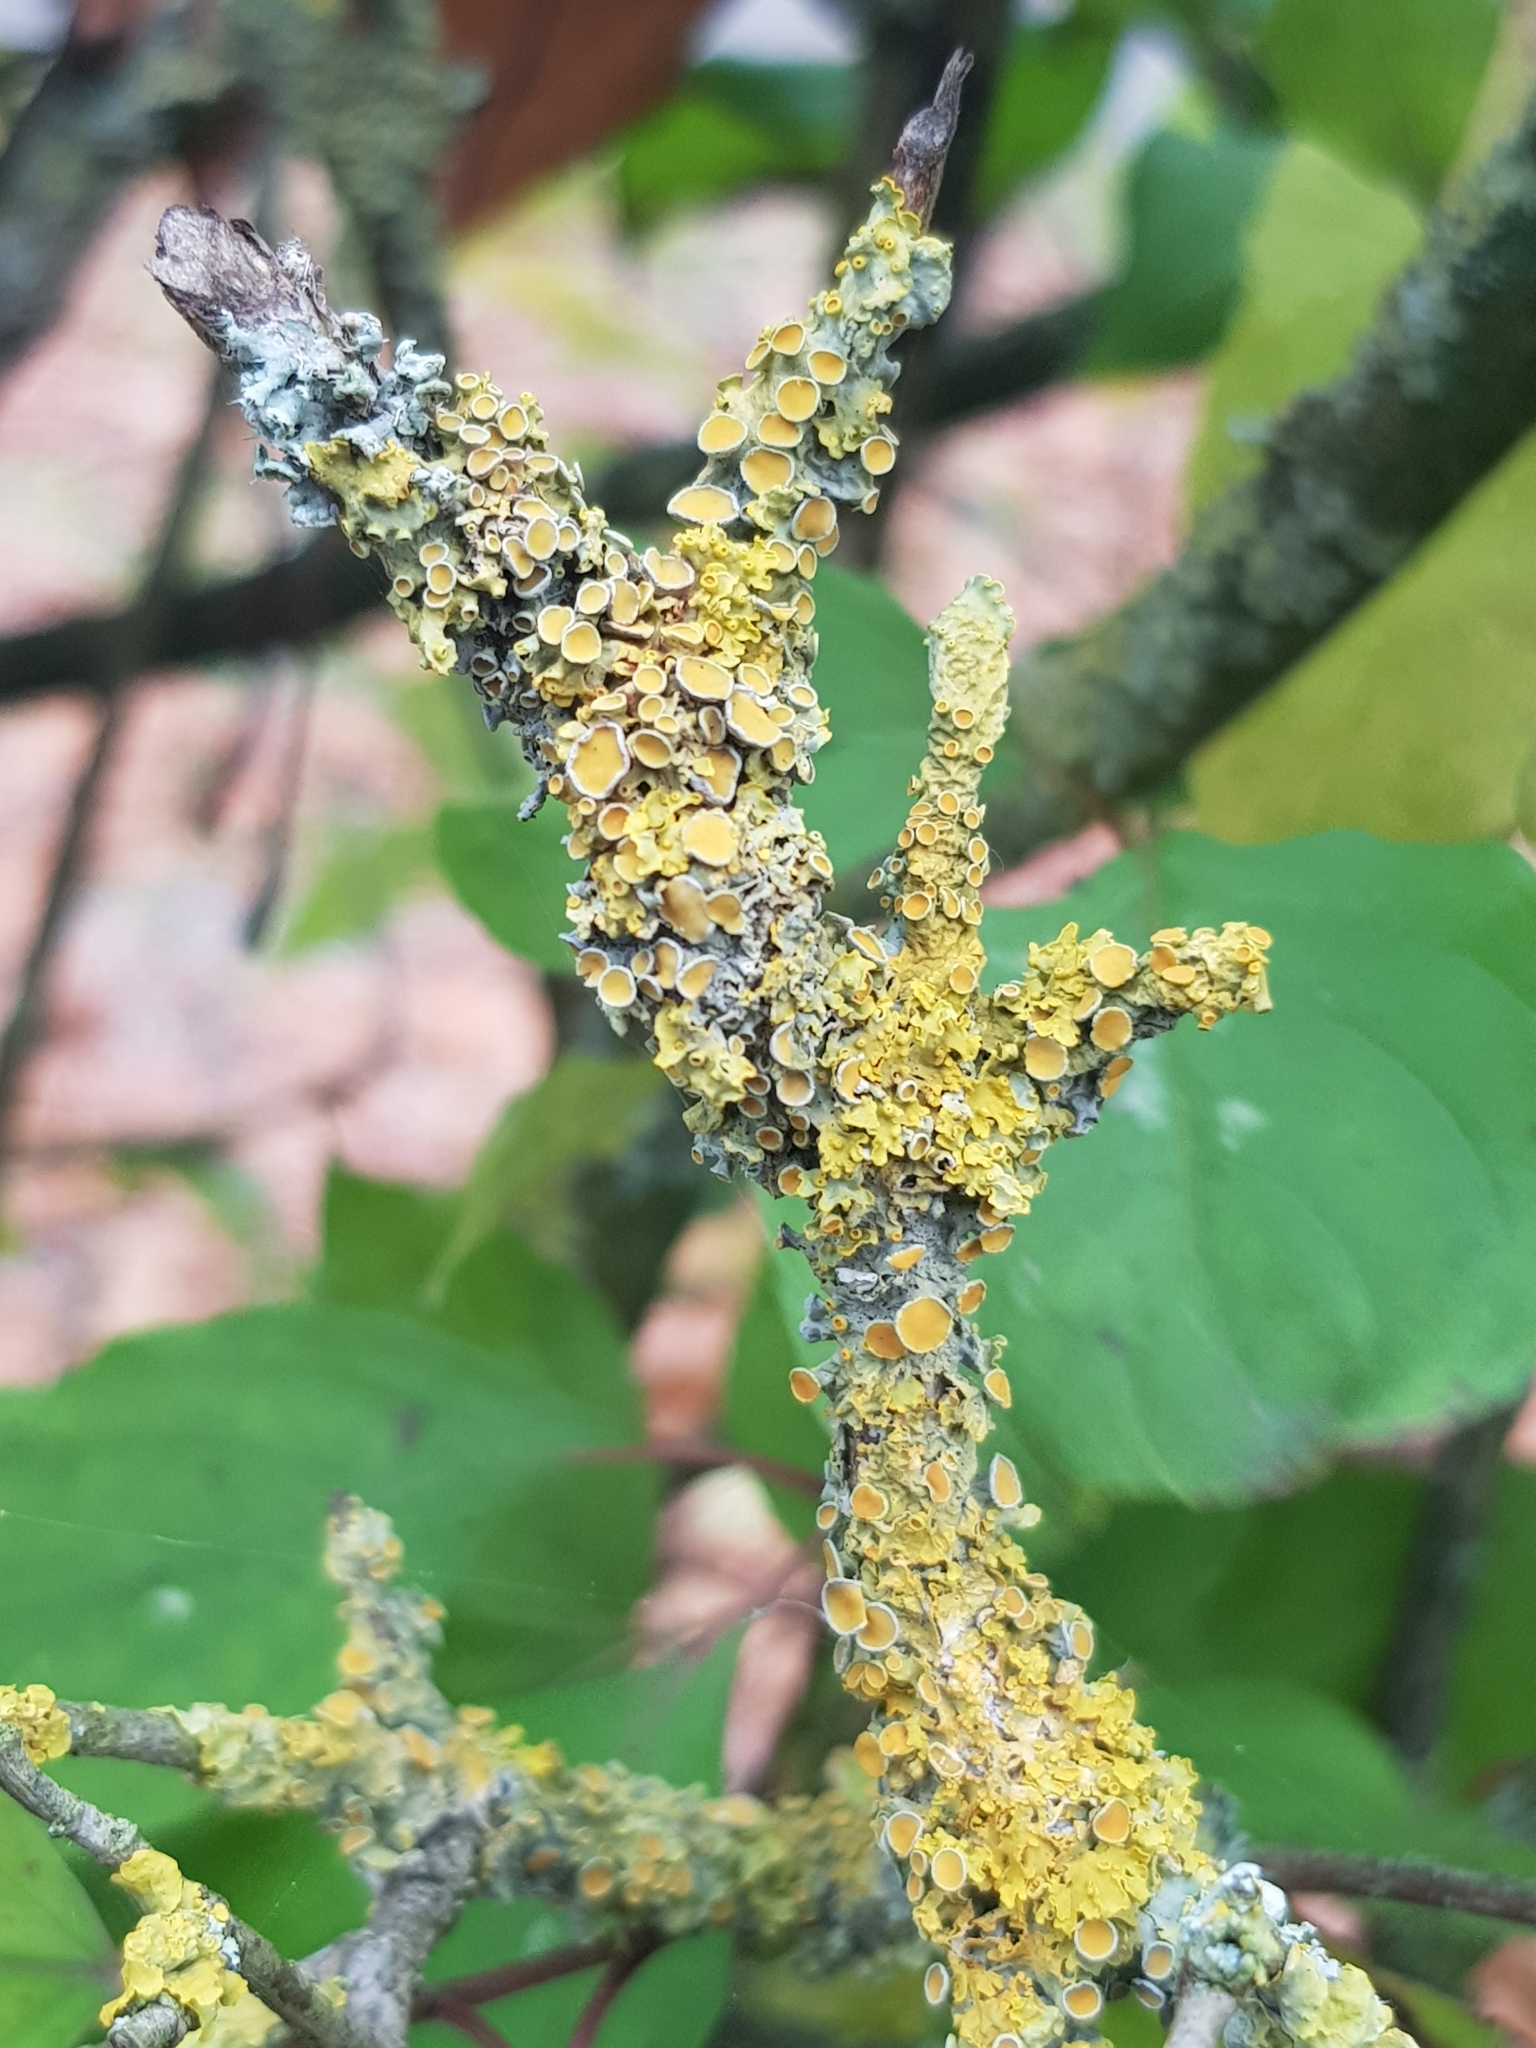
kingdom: Fungi
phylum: Ascomycota
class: Lecanoromycetes
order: Teloschistales
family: Teloschistaceae
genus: Xanthoria
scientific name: Xanthoria parietina
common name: Common orange lichen
